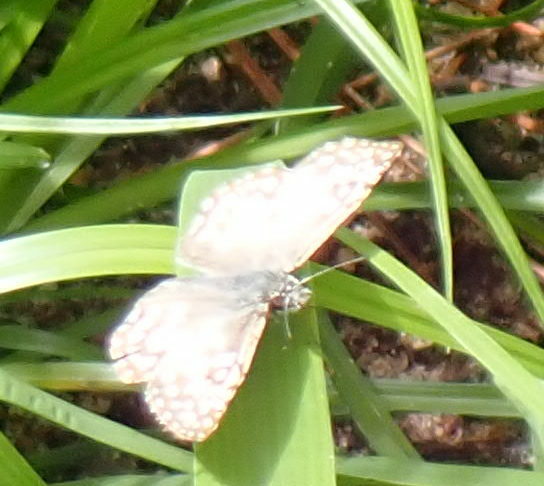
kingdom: Animalia
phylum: Arthropoda
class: Insecta
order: Lepidoptera
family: Hesperiidae
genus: Pyrgus
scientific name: Pyrgus oileus
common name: Tropical checkered-skipper
